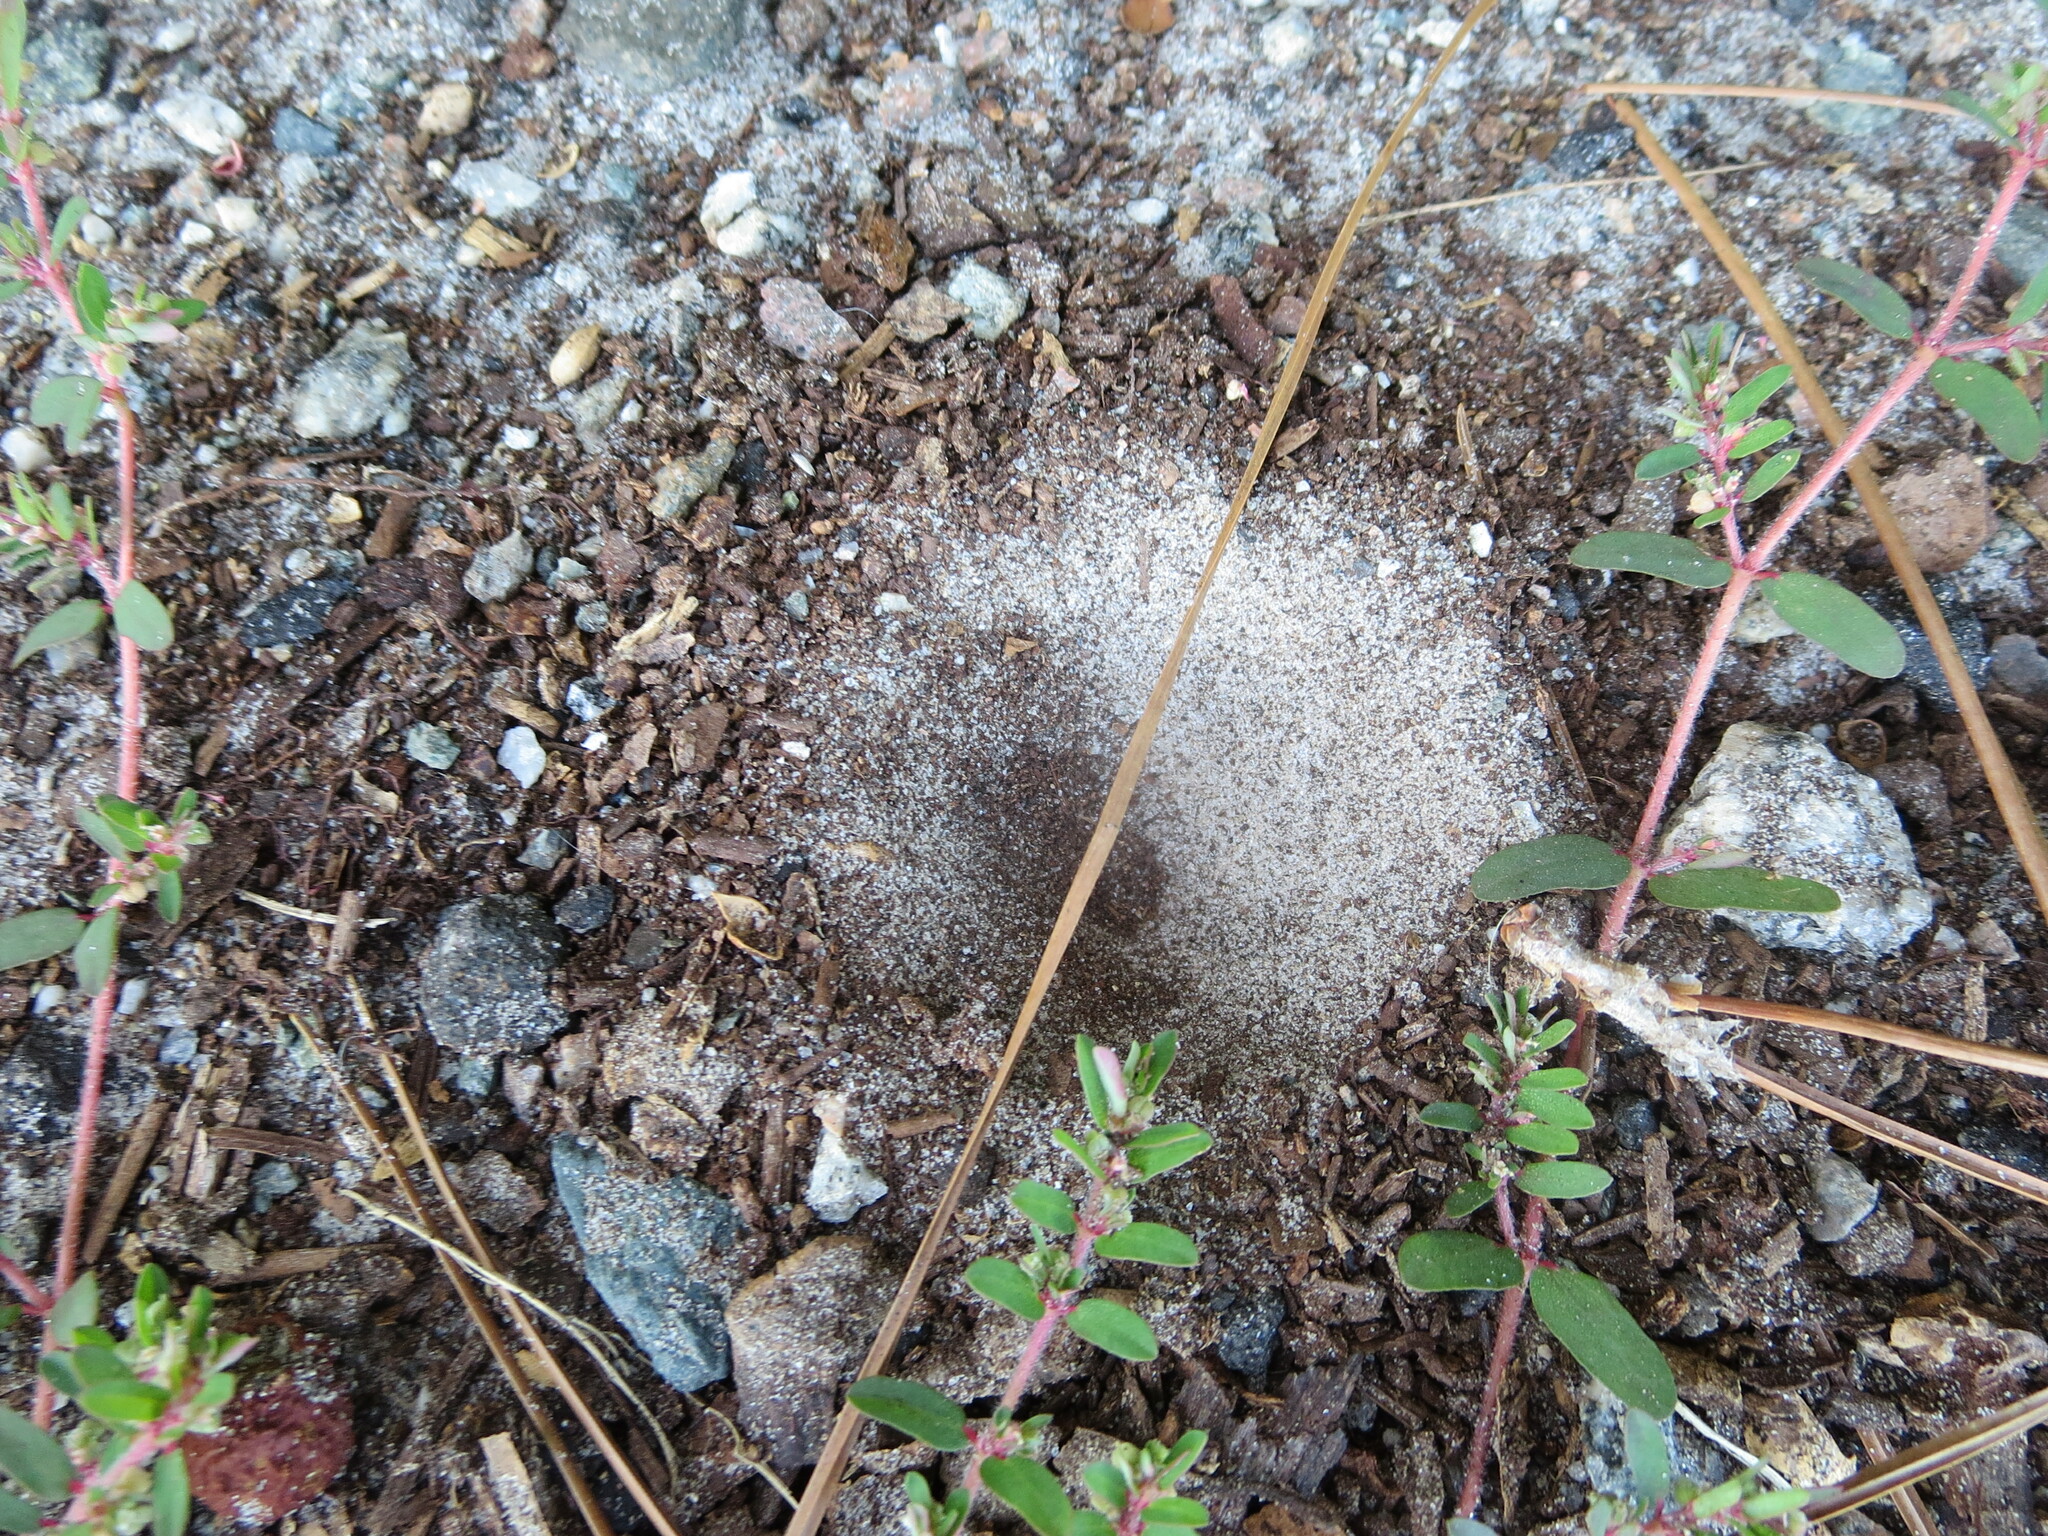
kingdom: Plantae
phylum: Tracheophyta
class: Magnoliopsida
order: Malpighiales
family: Euphorbiaceae
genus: Euphorbia
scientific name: Euphorbia maculata
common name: Spotted spurge
